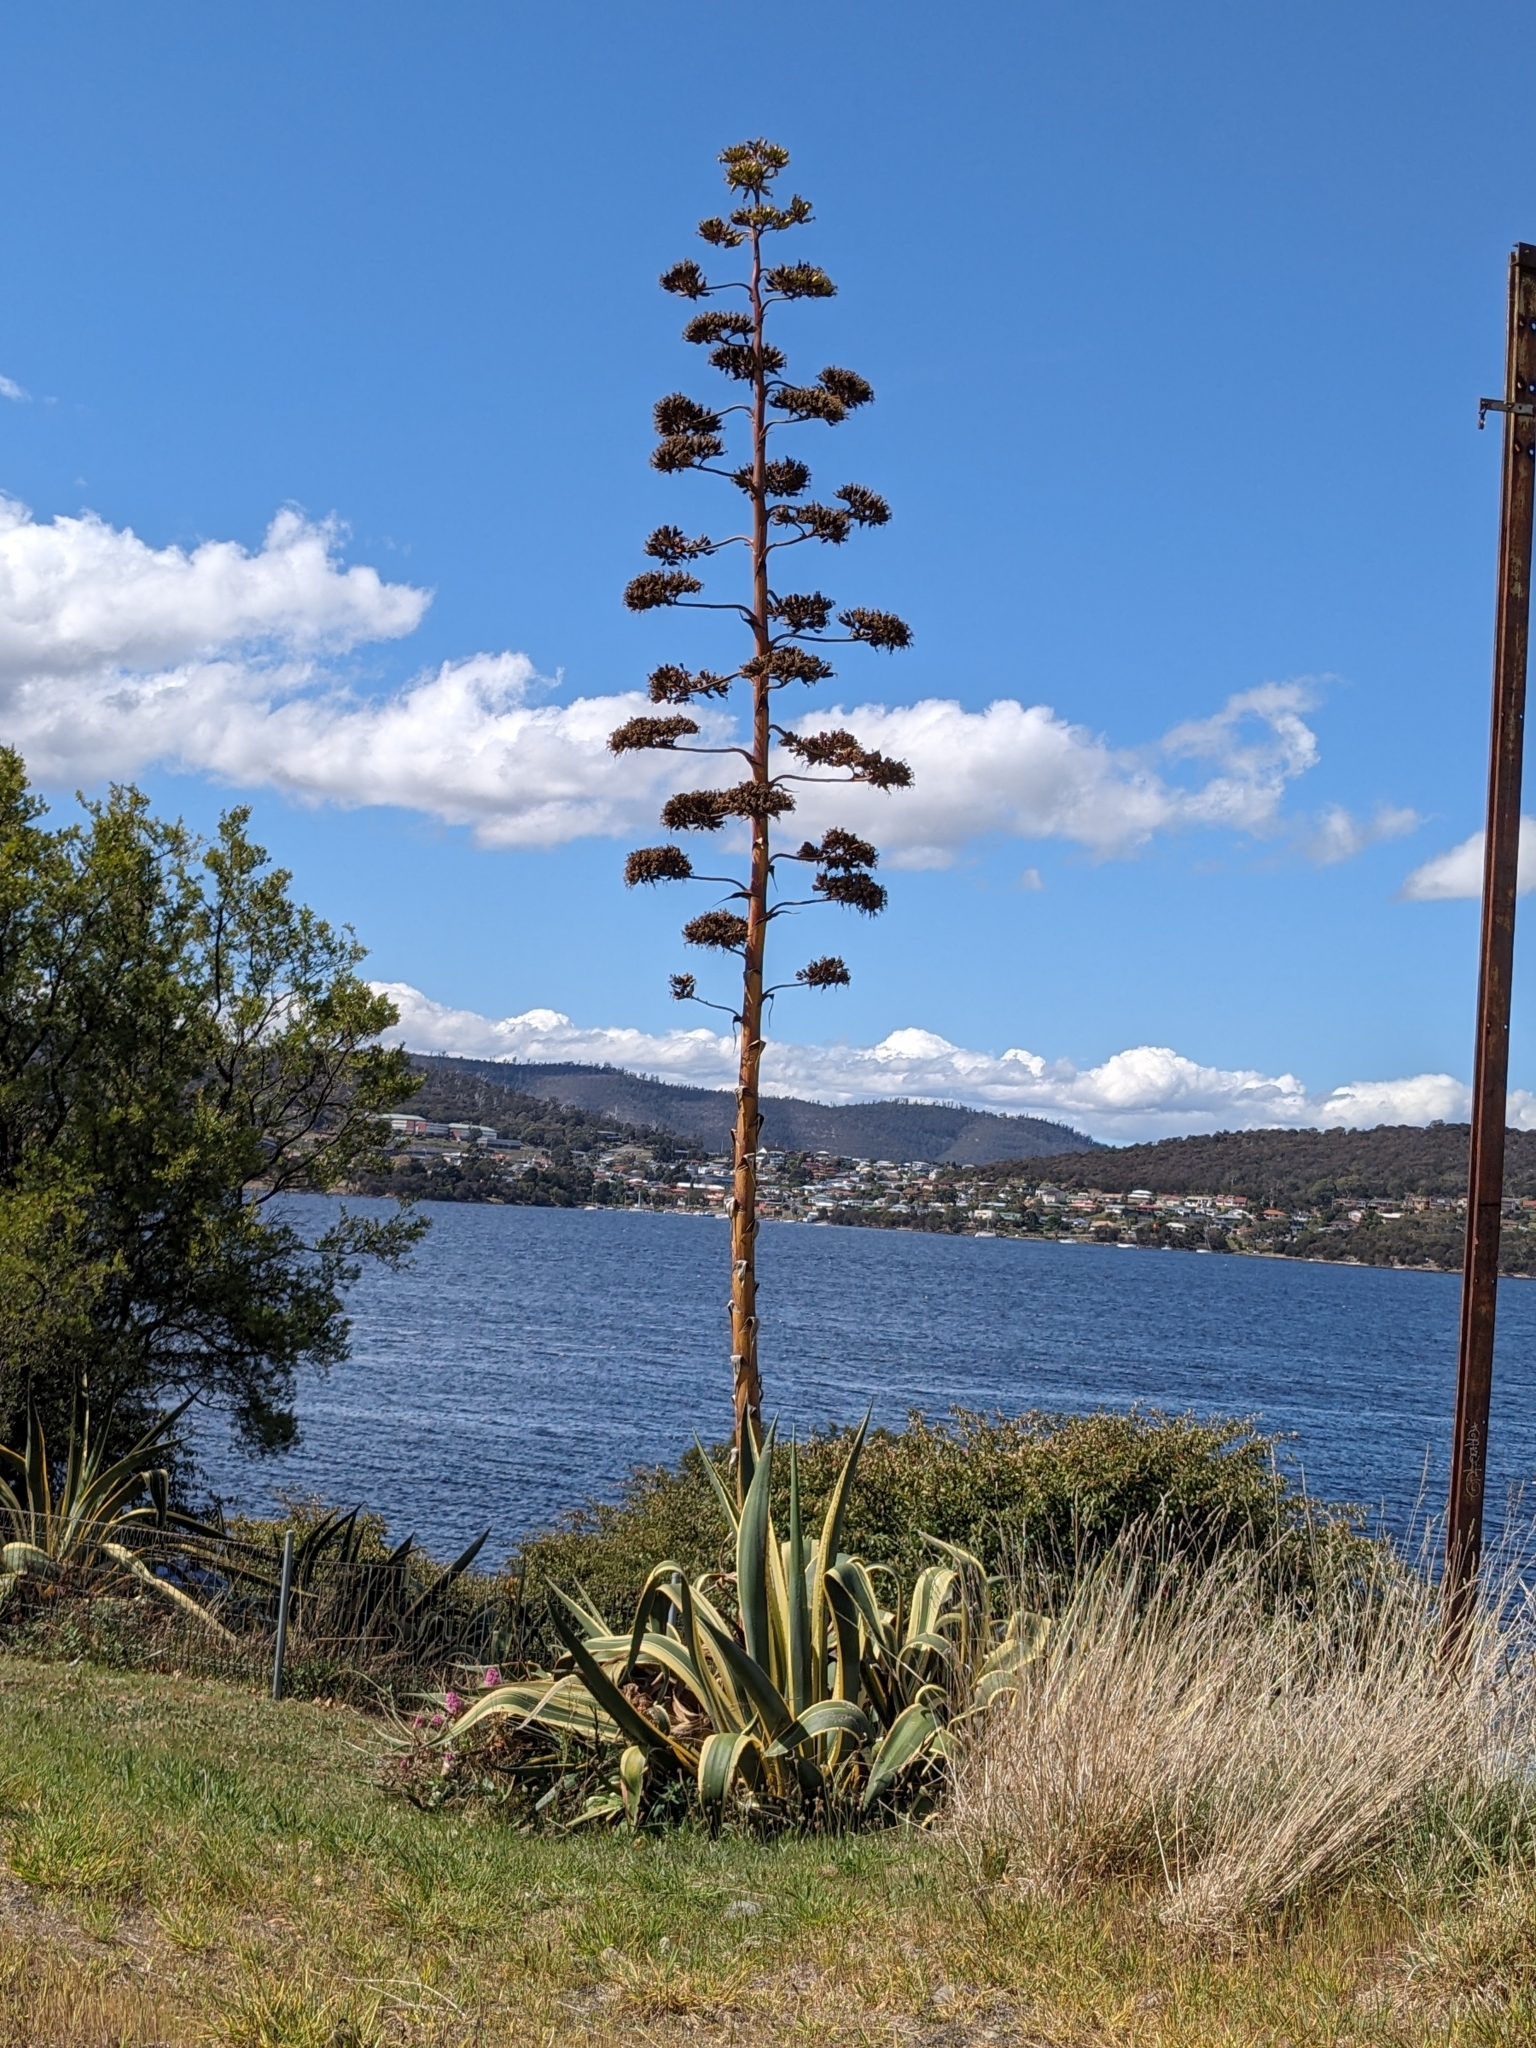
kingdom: Plantae
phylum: Tracheophyta
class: Liliopsida
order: Asparagales
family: Asparagaceae
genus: Agave
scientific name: Agave americana
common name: Centuryplant
